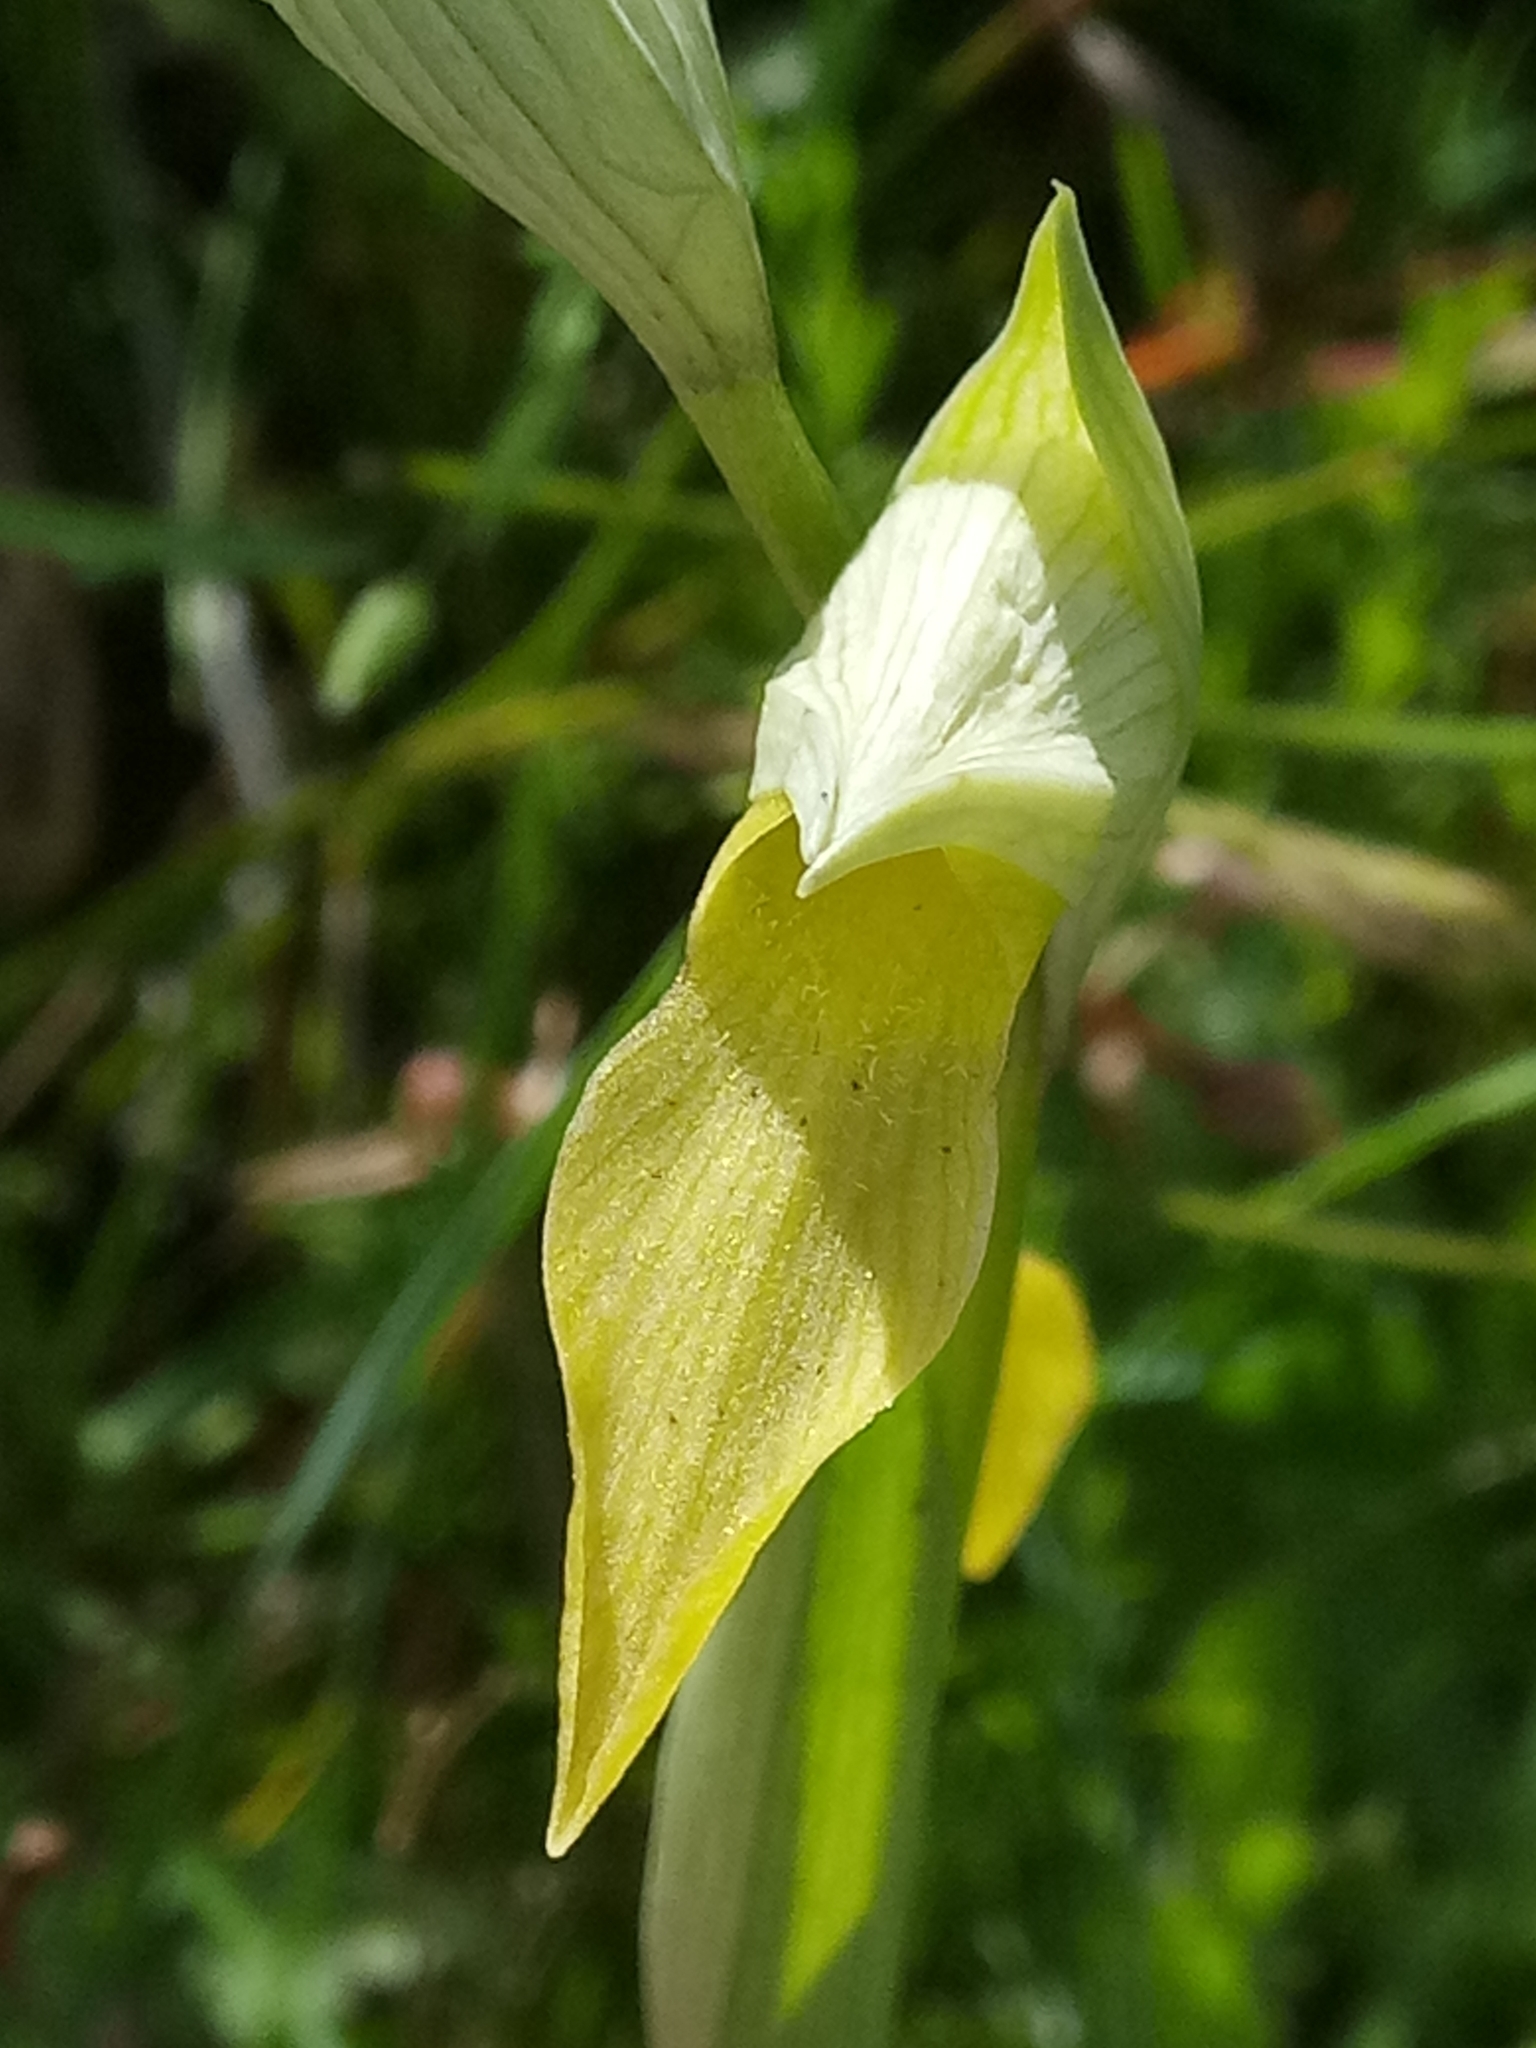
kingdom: Plantae
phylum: Tracheophyta
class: Liliopsida
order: Asparagales
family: Orchidaceae
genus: Serapias
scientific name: Serapias lingua
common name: Tongue-orchid
